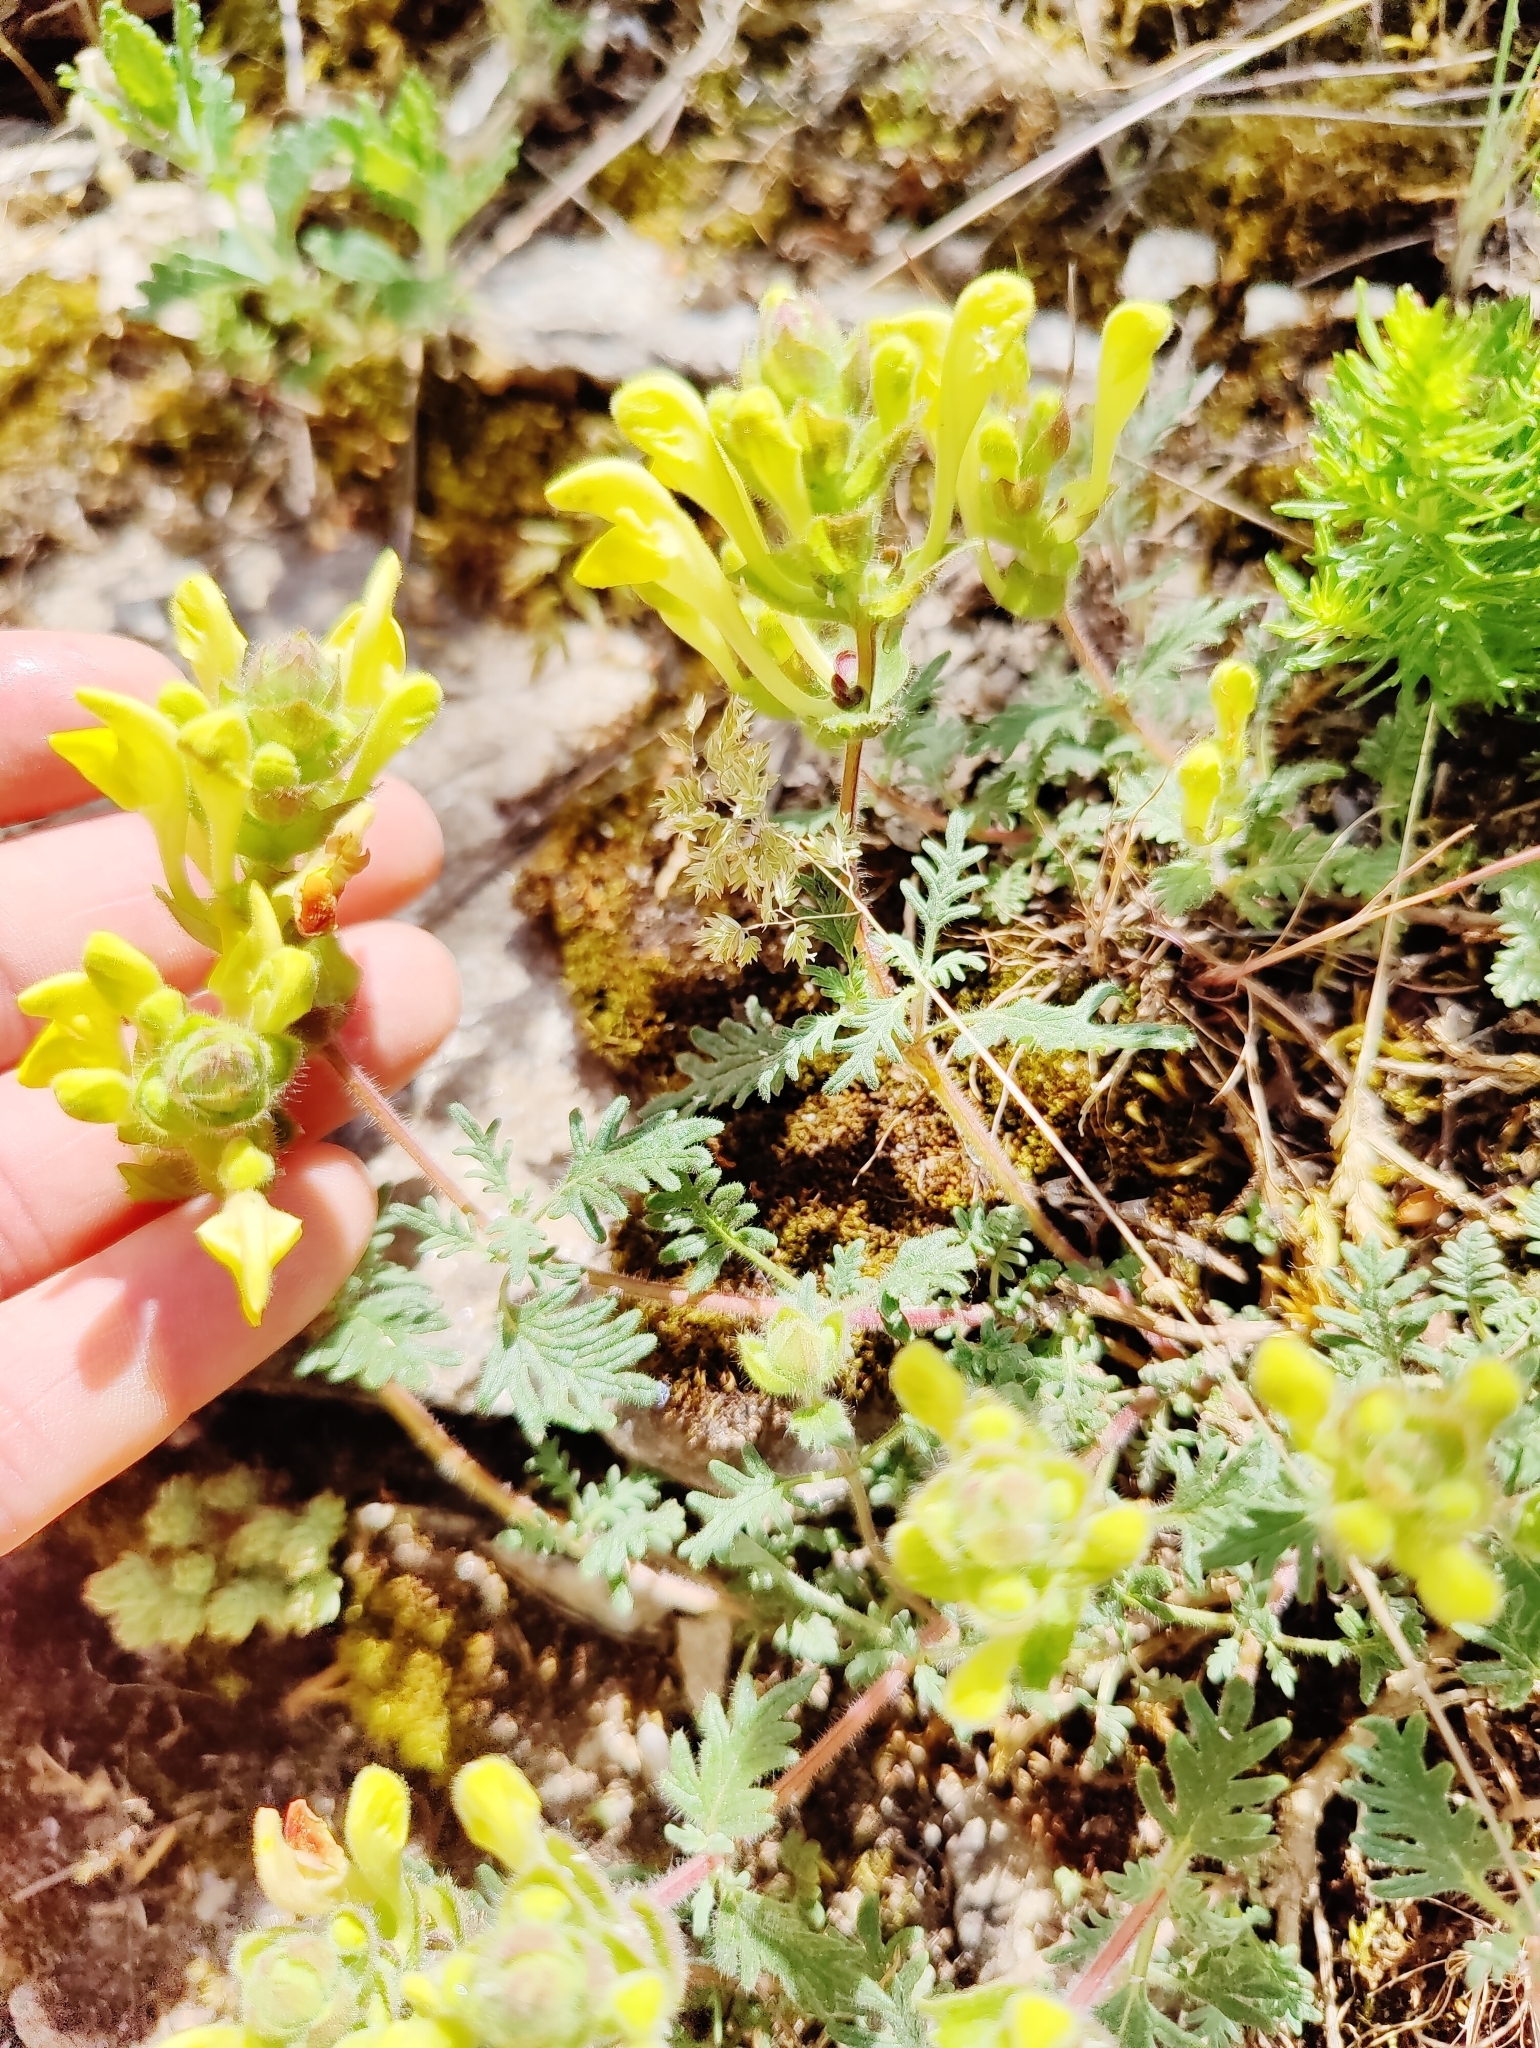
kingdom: Plantae
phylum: Tracheophyta
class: Magnoliopsida
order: Lamiales
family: Lamiaceae
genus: Scutellaria
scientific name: Scutellaria orientalis
